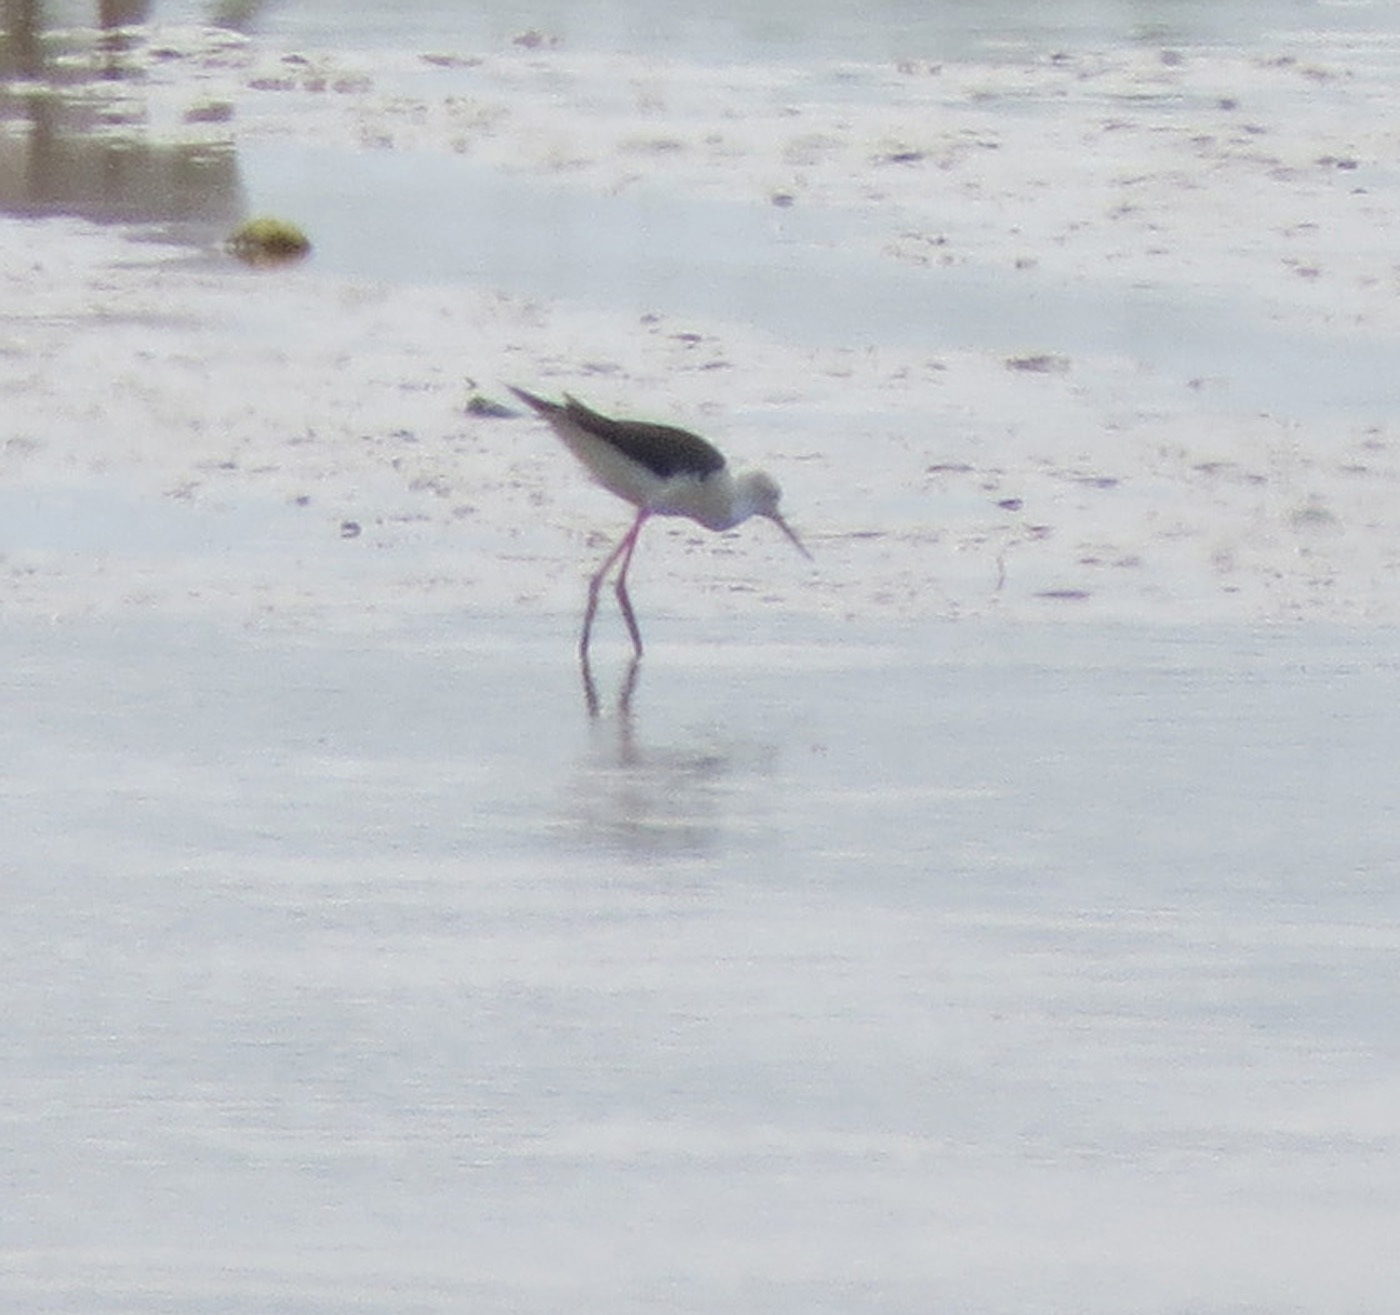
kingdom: Animalia
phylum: Chordata
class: Aves
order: Charadriiformes
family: Recurvirostridae
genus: Himantopus
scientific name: Himantopus himantopus
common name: Black-winged stilt
